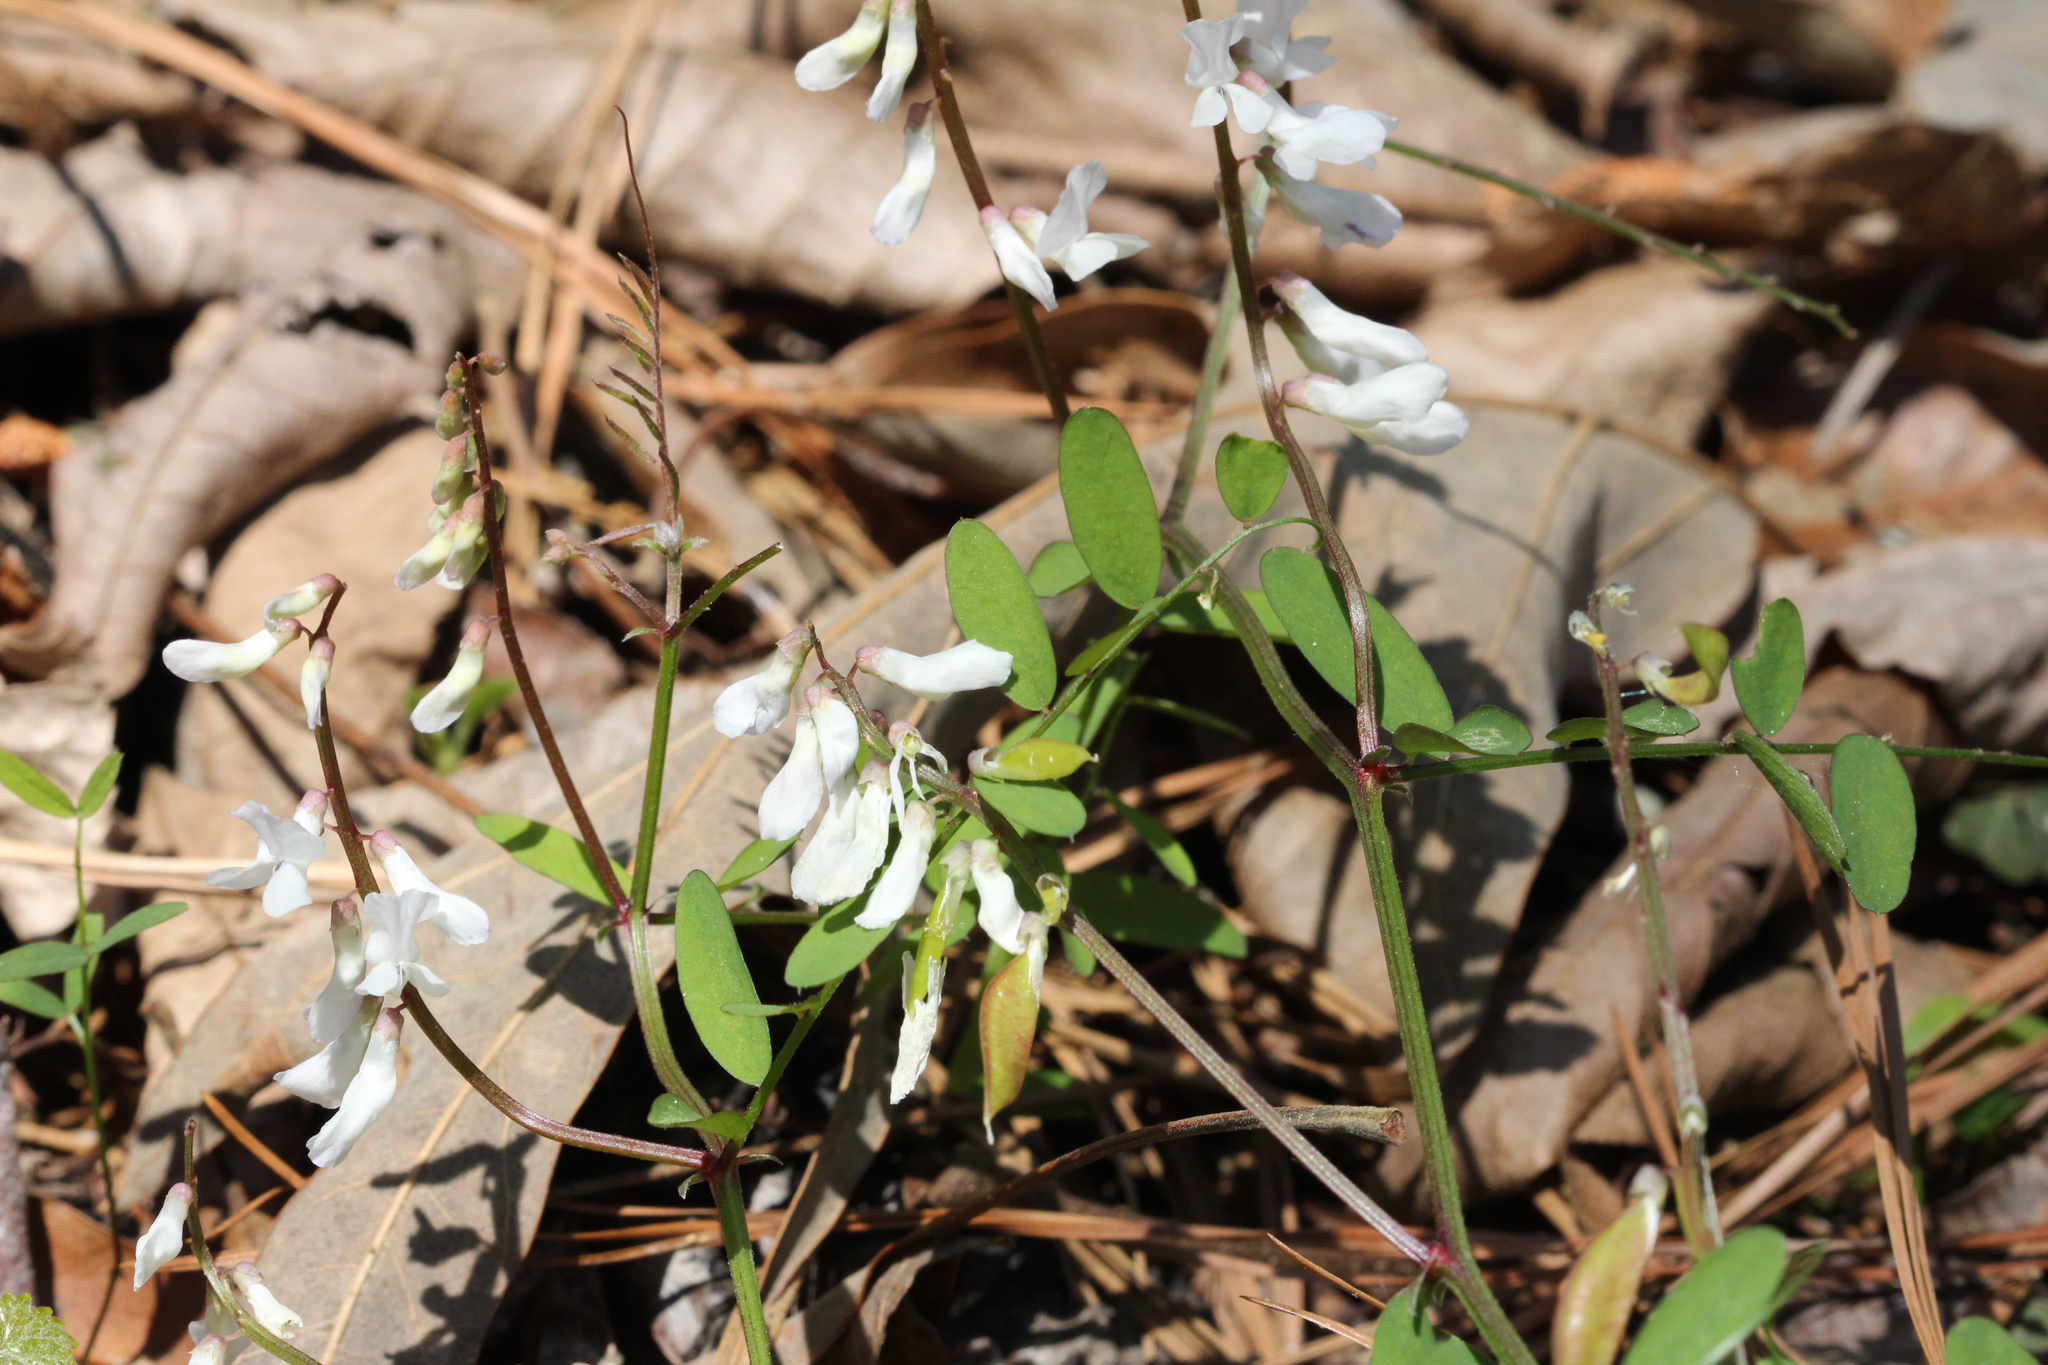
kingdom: Plantae
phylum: Tracheophyta
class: Magnoliopsida
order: Fabales
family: Fabaceae
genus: Vicia
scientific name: Vicia caroliniana
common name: Carolina vetch
